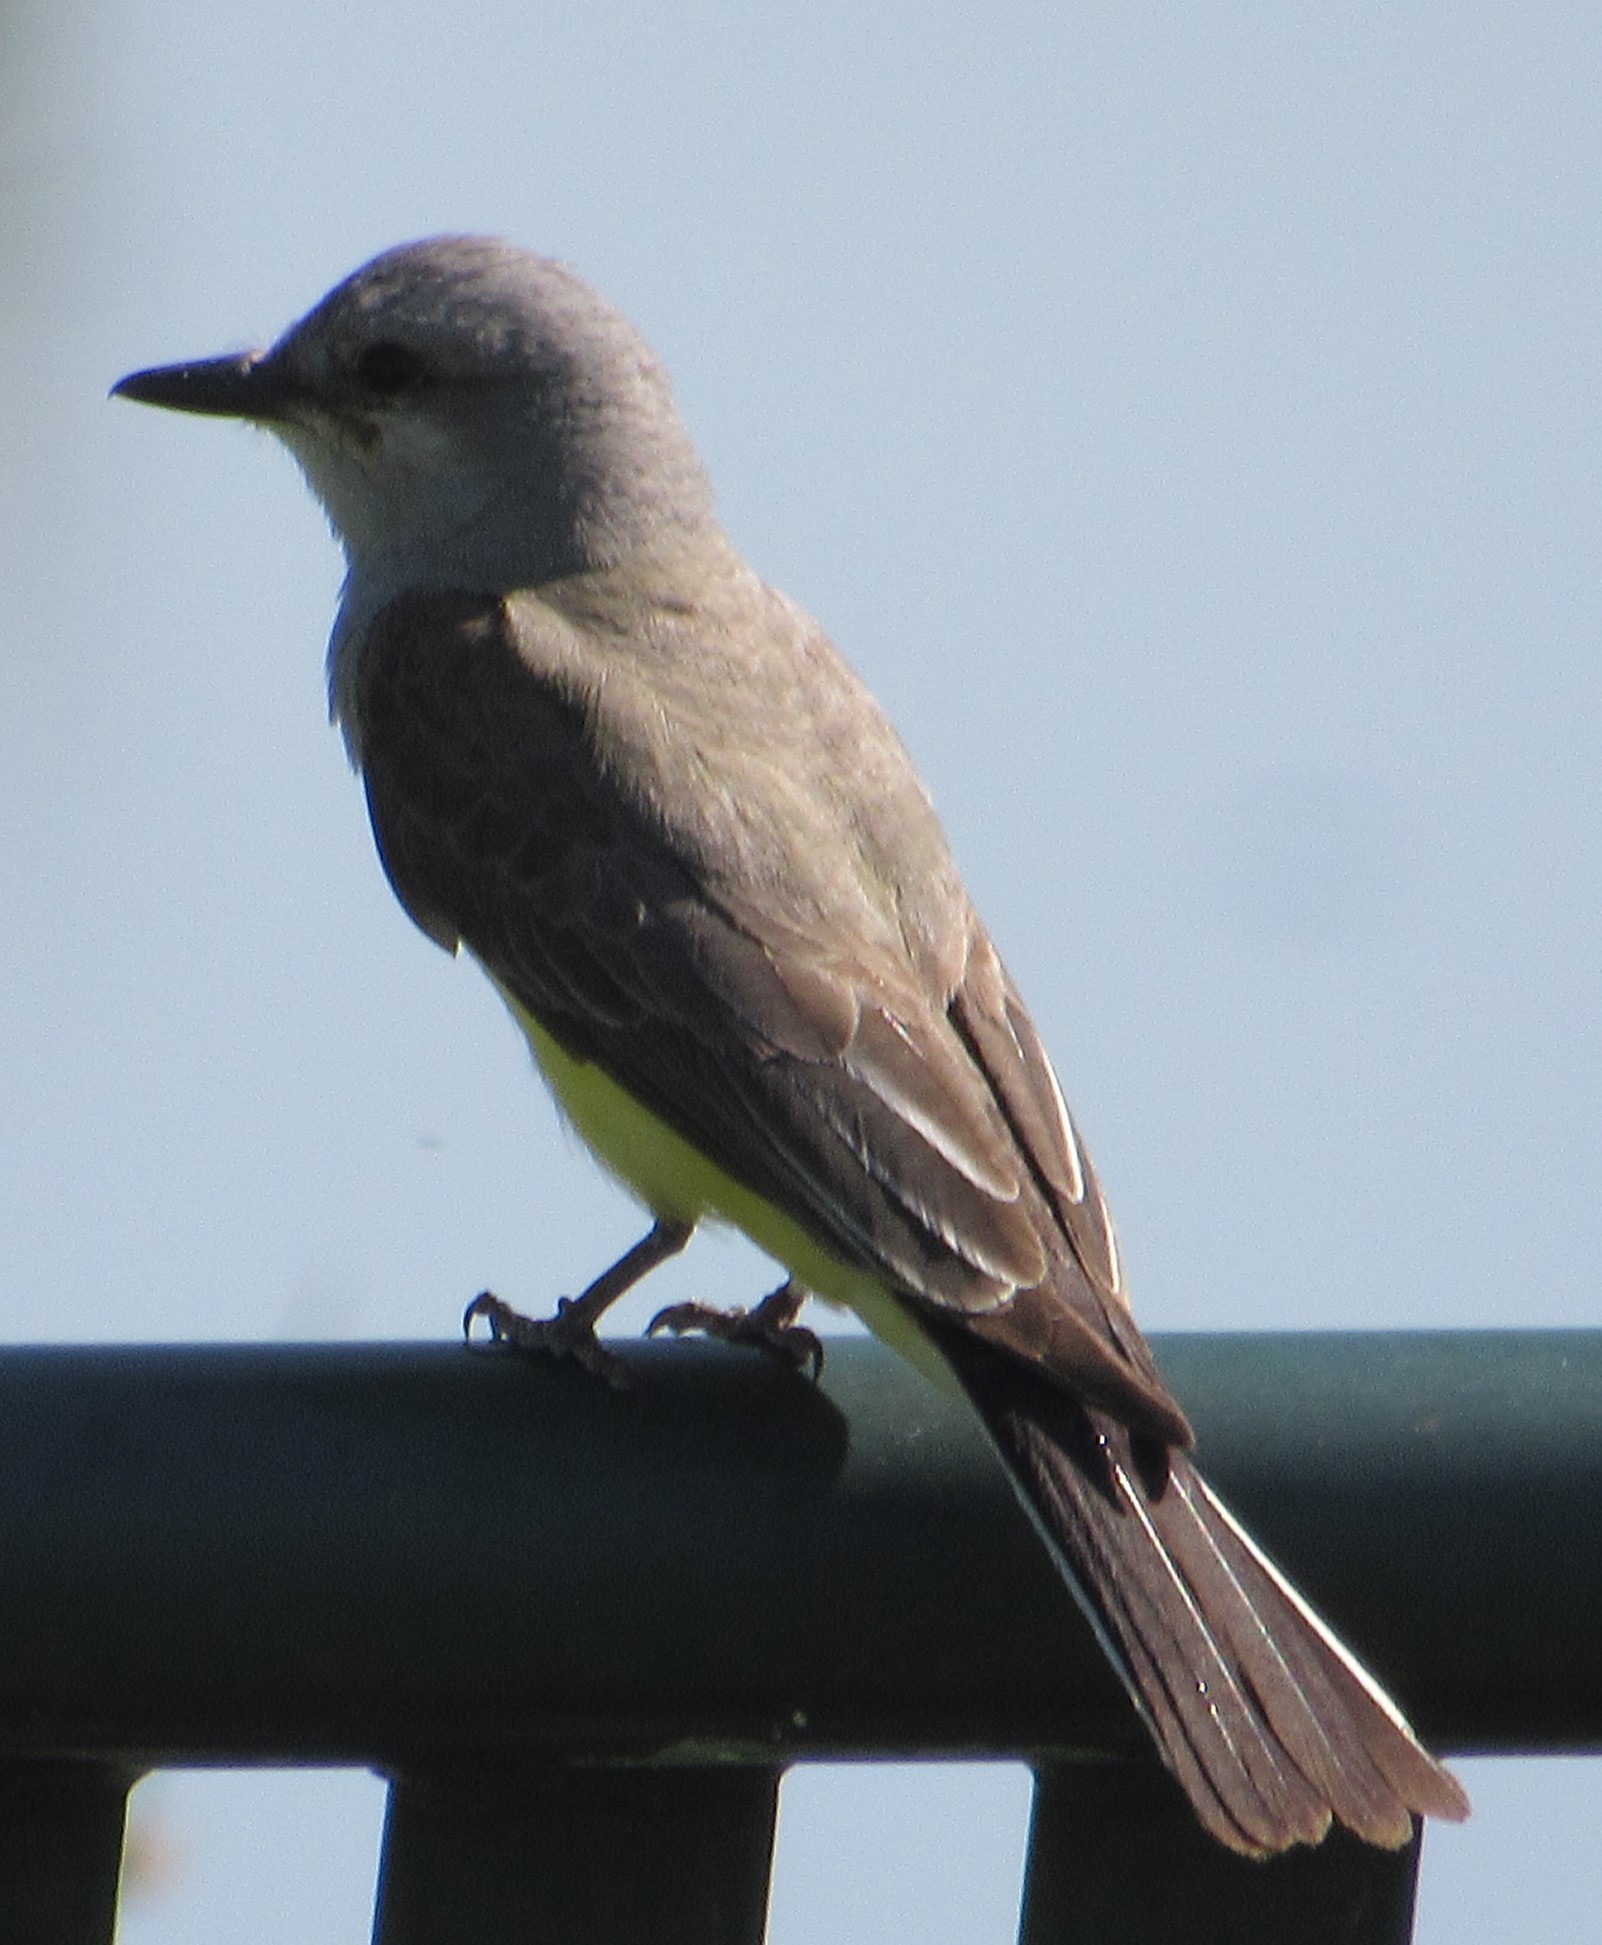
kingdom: Animalia
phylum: Chordata
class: Aves
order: Passeriformes
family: Tyrannidae
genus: Tyrannus
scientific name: Tyrannus verticalis
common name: Western kingbird
